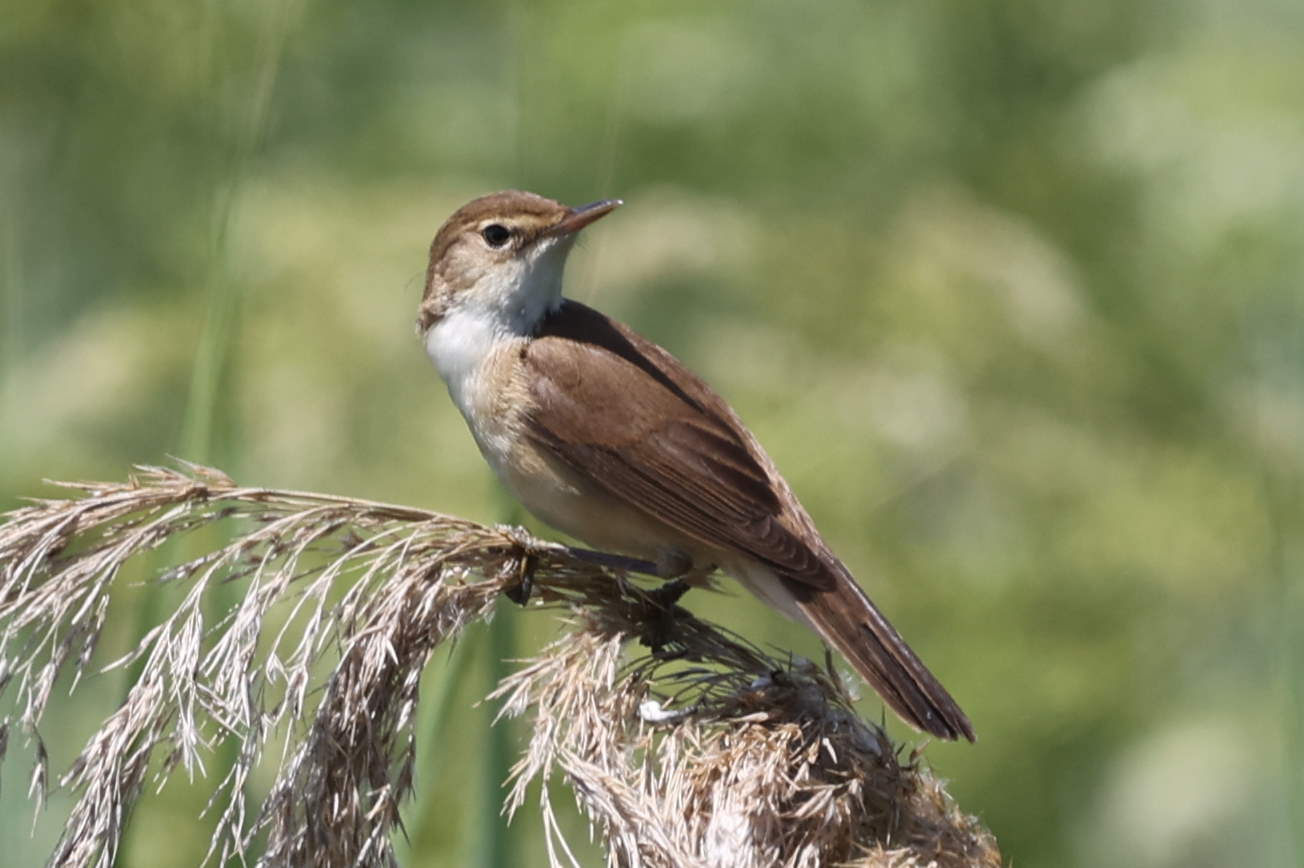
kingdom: Animalia
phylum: Chordata
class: Aves
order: Passeriformes
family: Acrocephalidae
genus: Acrocephalus
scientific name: Acrocephalus scirpaceus
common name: Eurasian reed warbler
